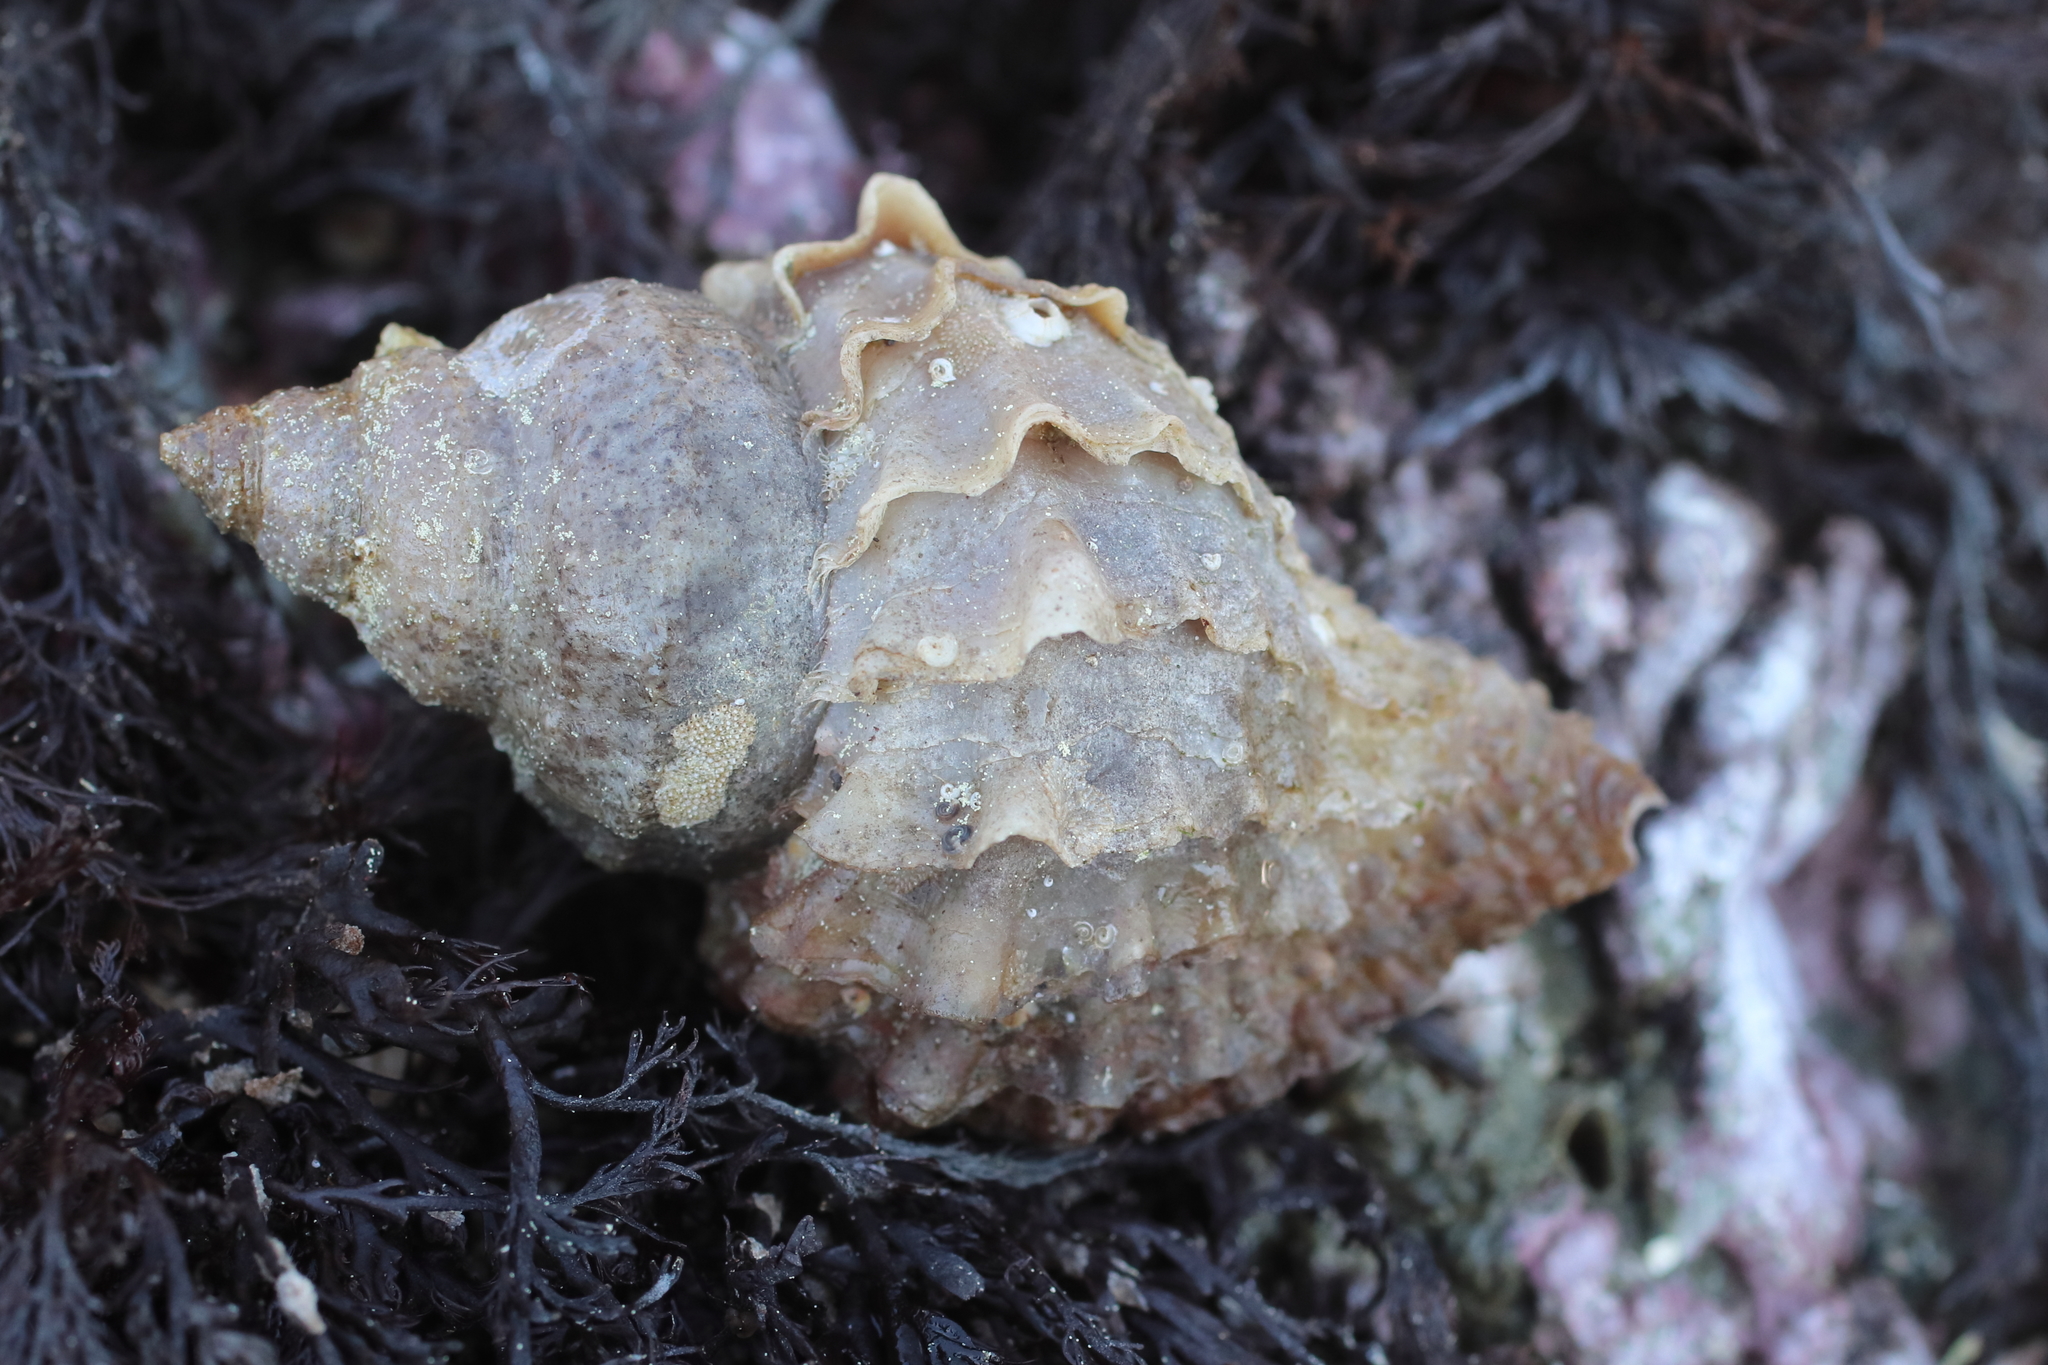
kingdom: Animalia
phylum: Mollusca
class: Gastropoda
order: Neogastropoda
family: Muricidae
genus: Nucella
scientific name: Nucella lamellosa
